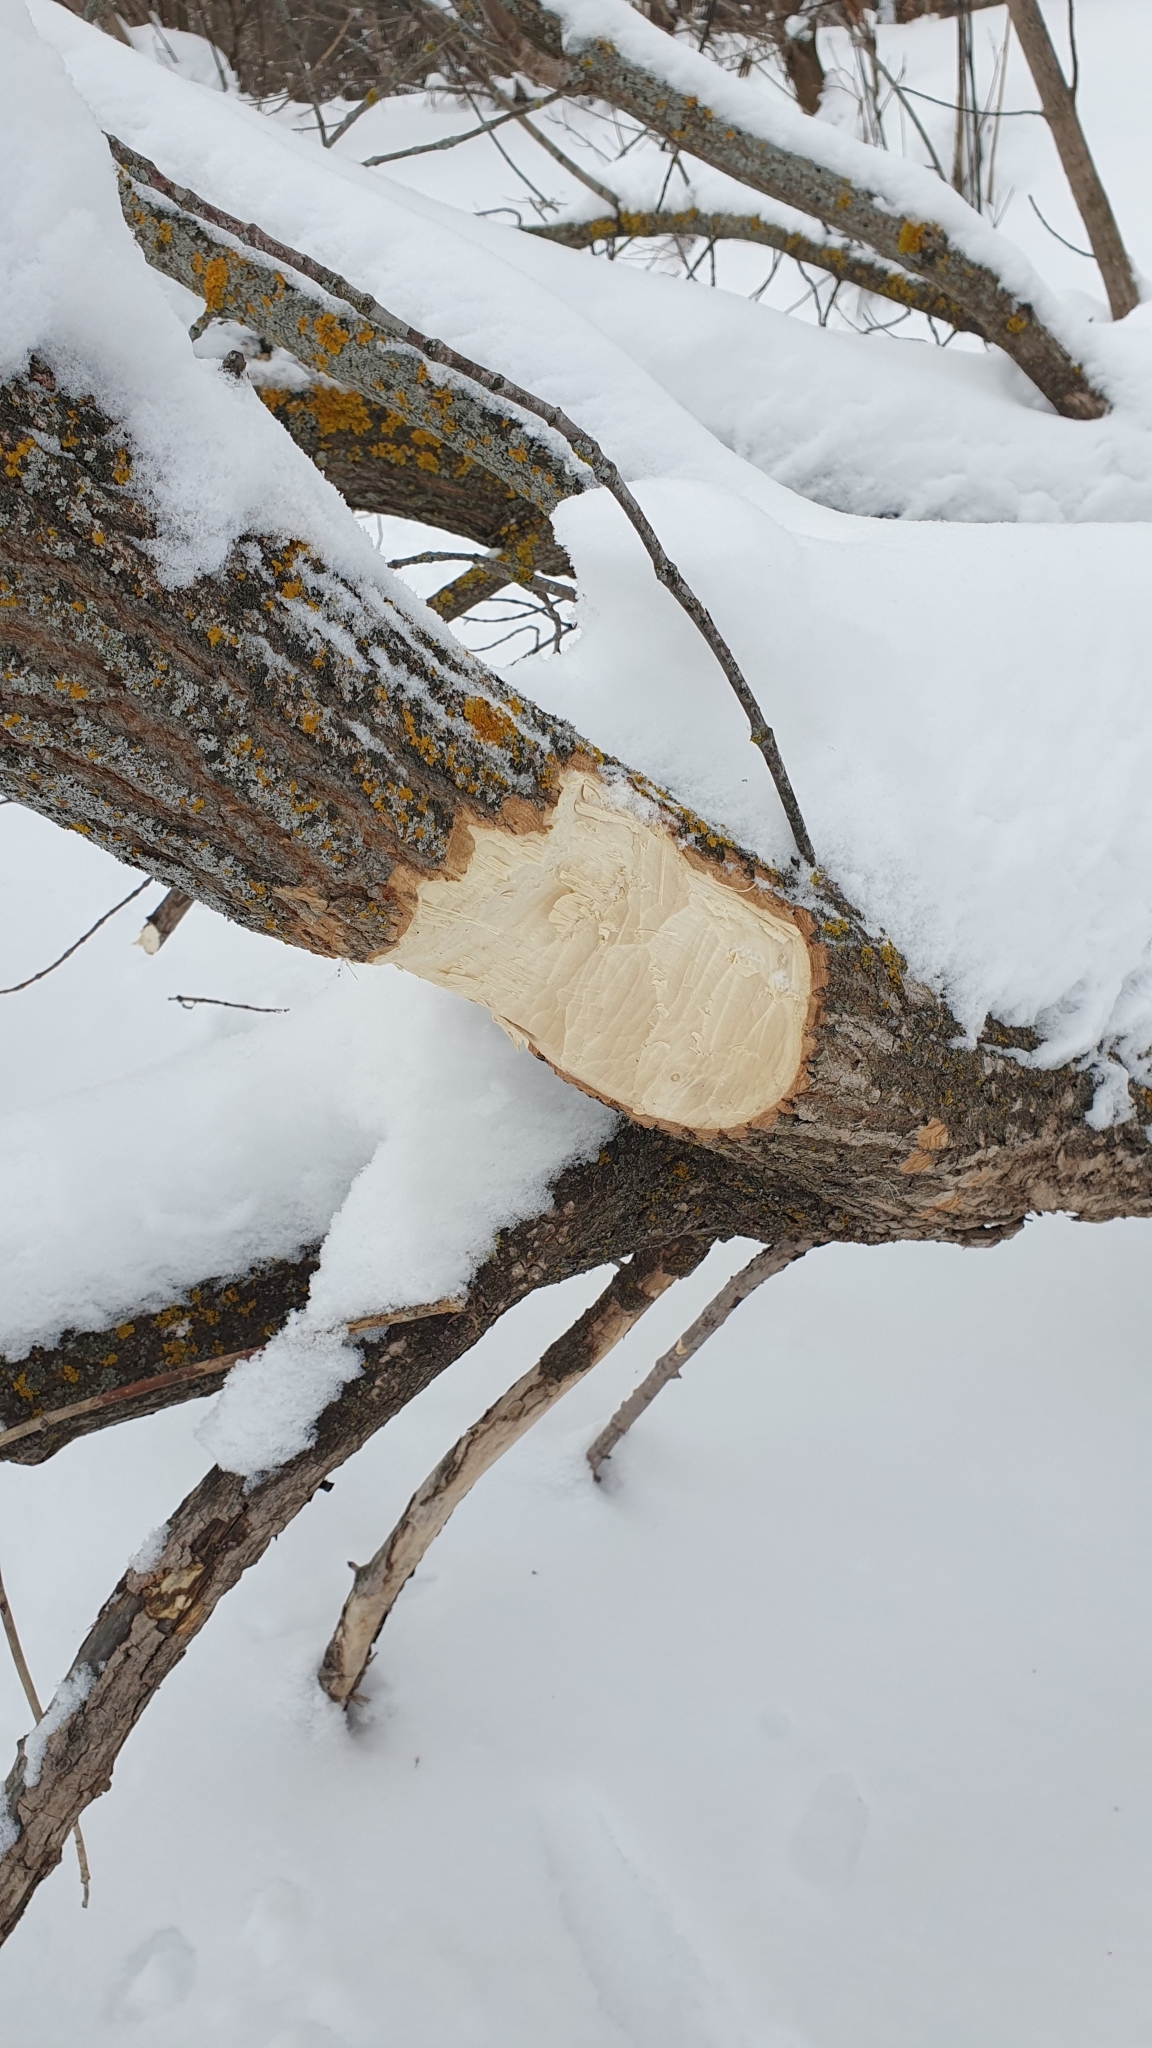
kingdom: Animalia
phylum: Chordata
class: Mammalia
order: Rodentia
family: Castoridae
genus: Castor
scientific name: Castor fiber
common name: Eurasian beaver
